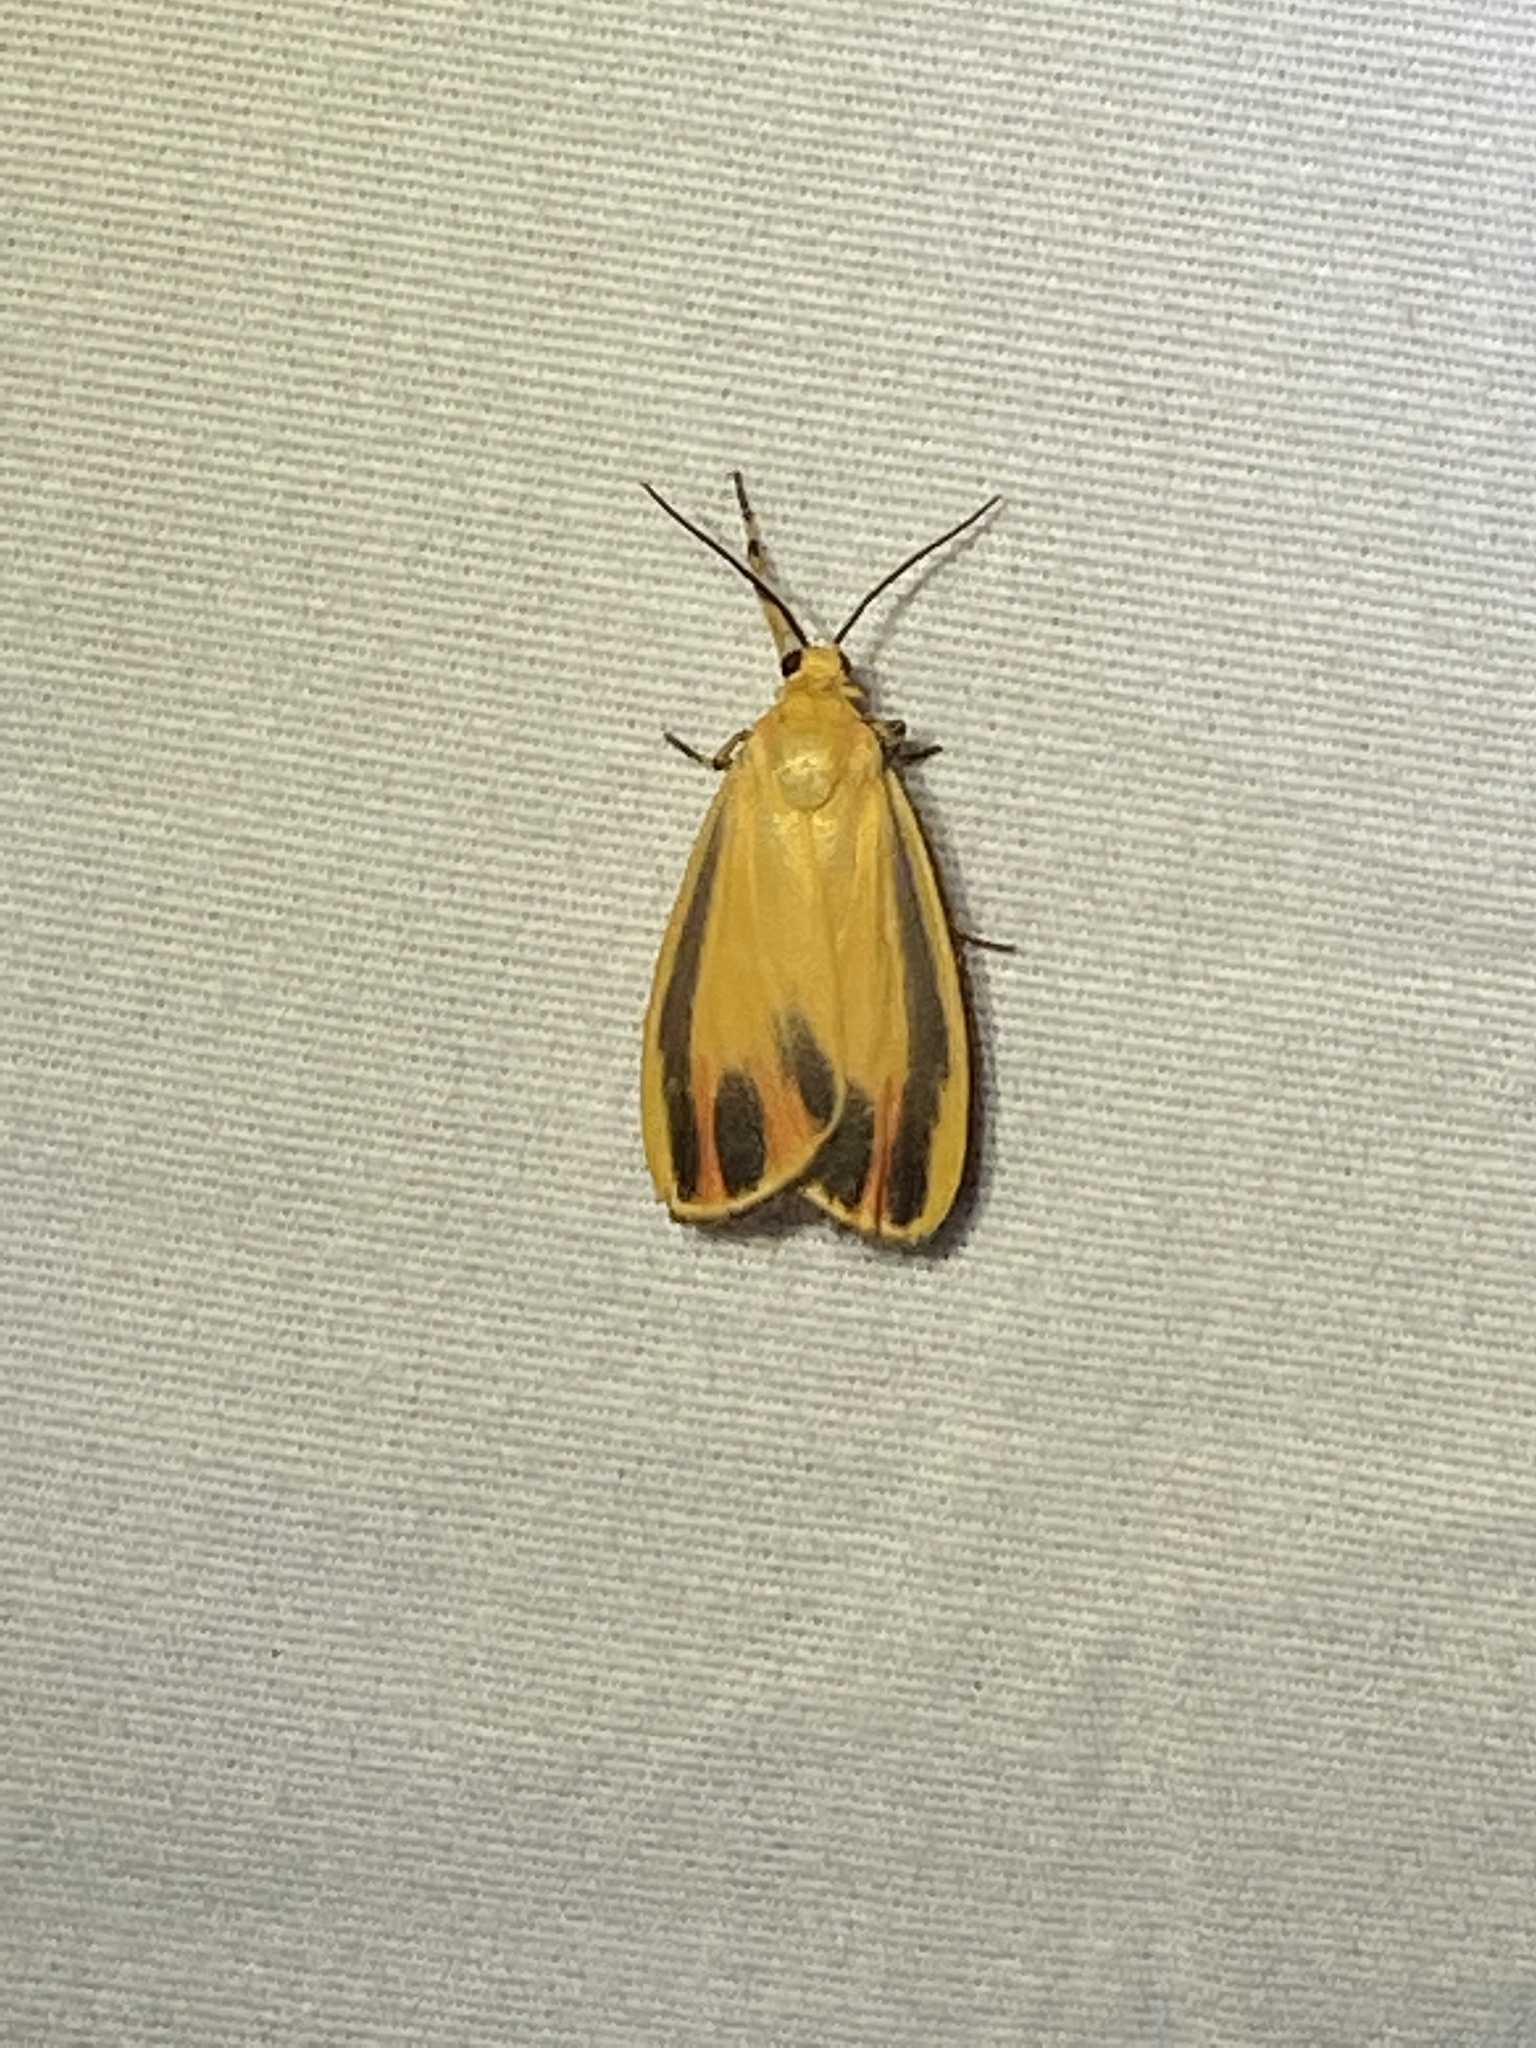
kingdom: Animalia
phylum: Arthropoda
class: Insecta
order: Lepidoptera
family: Erebidae
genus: Hypoprepia
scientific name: Hypoprepia fucosa
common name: Painted lichen moth
